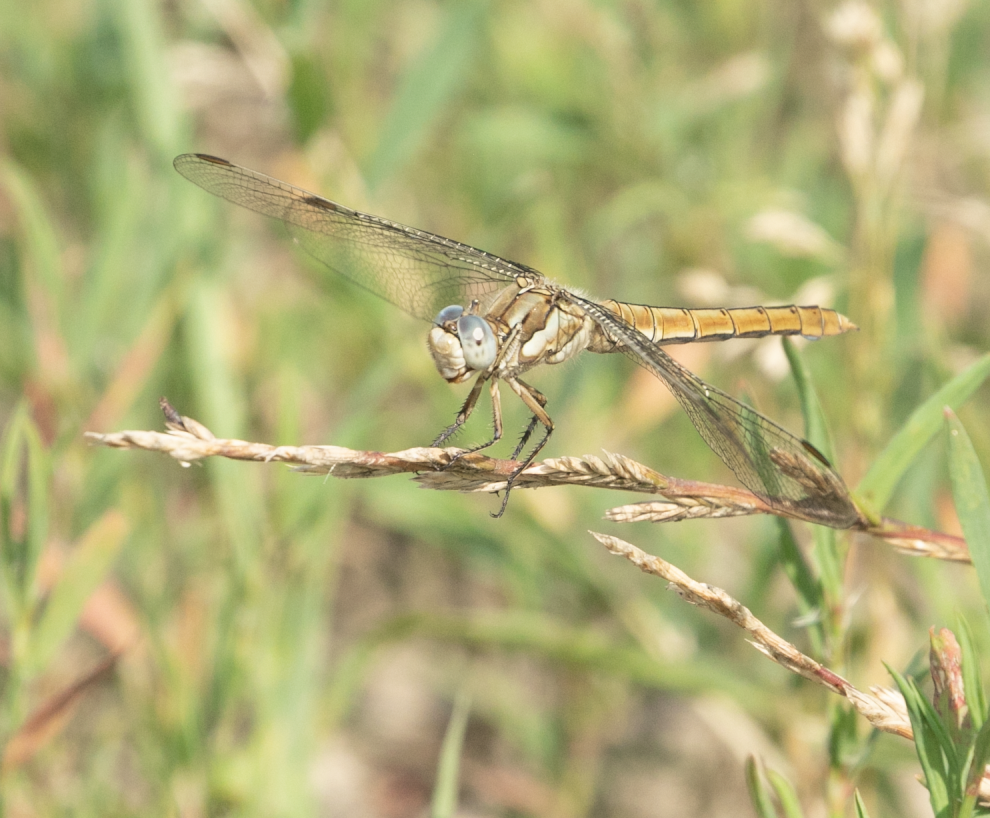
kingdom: Animalia
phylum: Arthropoda
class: Insecta
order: Odonata
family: Libellulidae
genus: Orthetrum
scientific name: Orthetrum brunneum
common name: Southern skimmer
